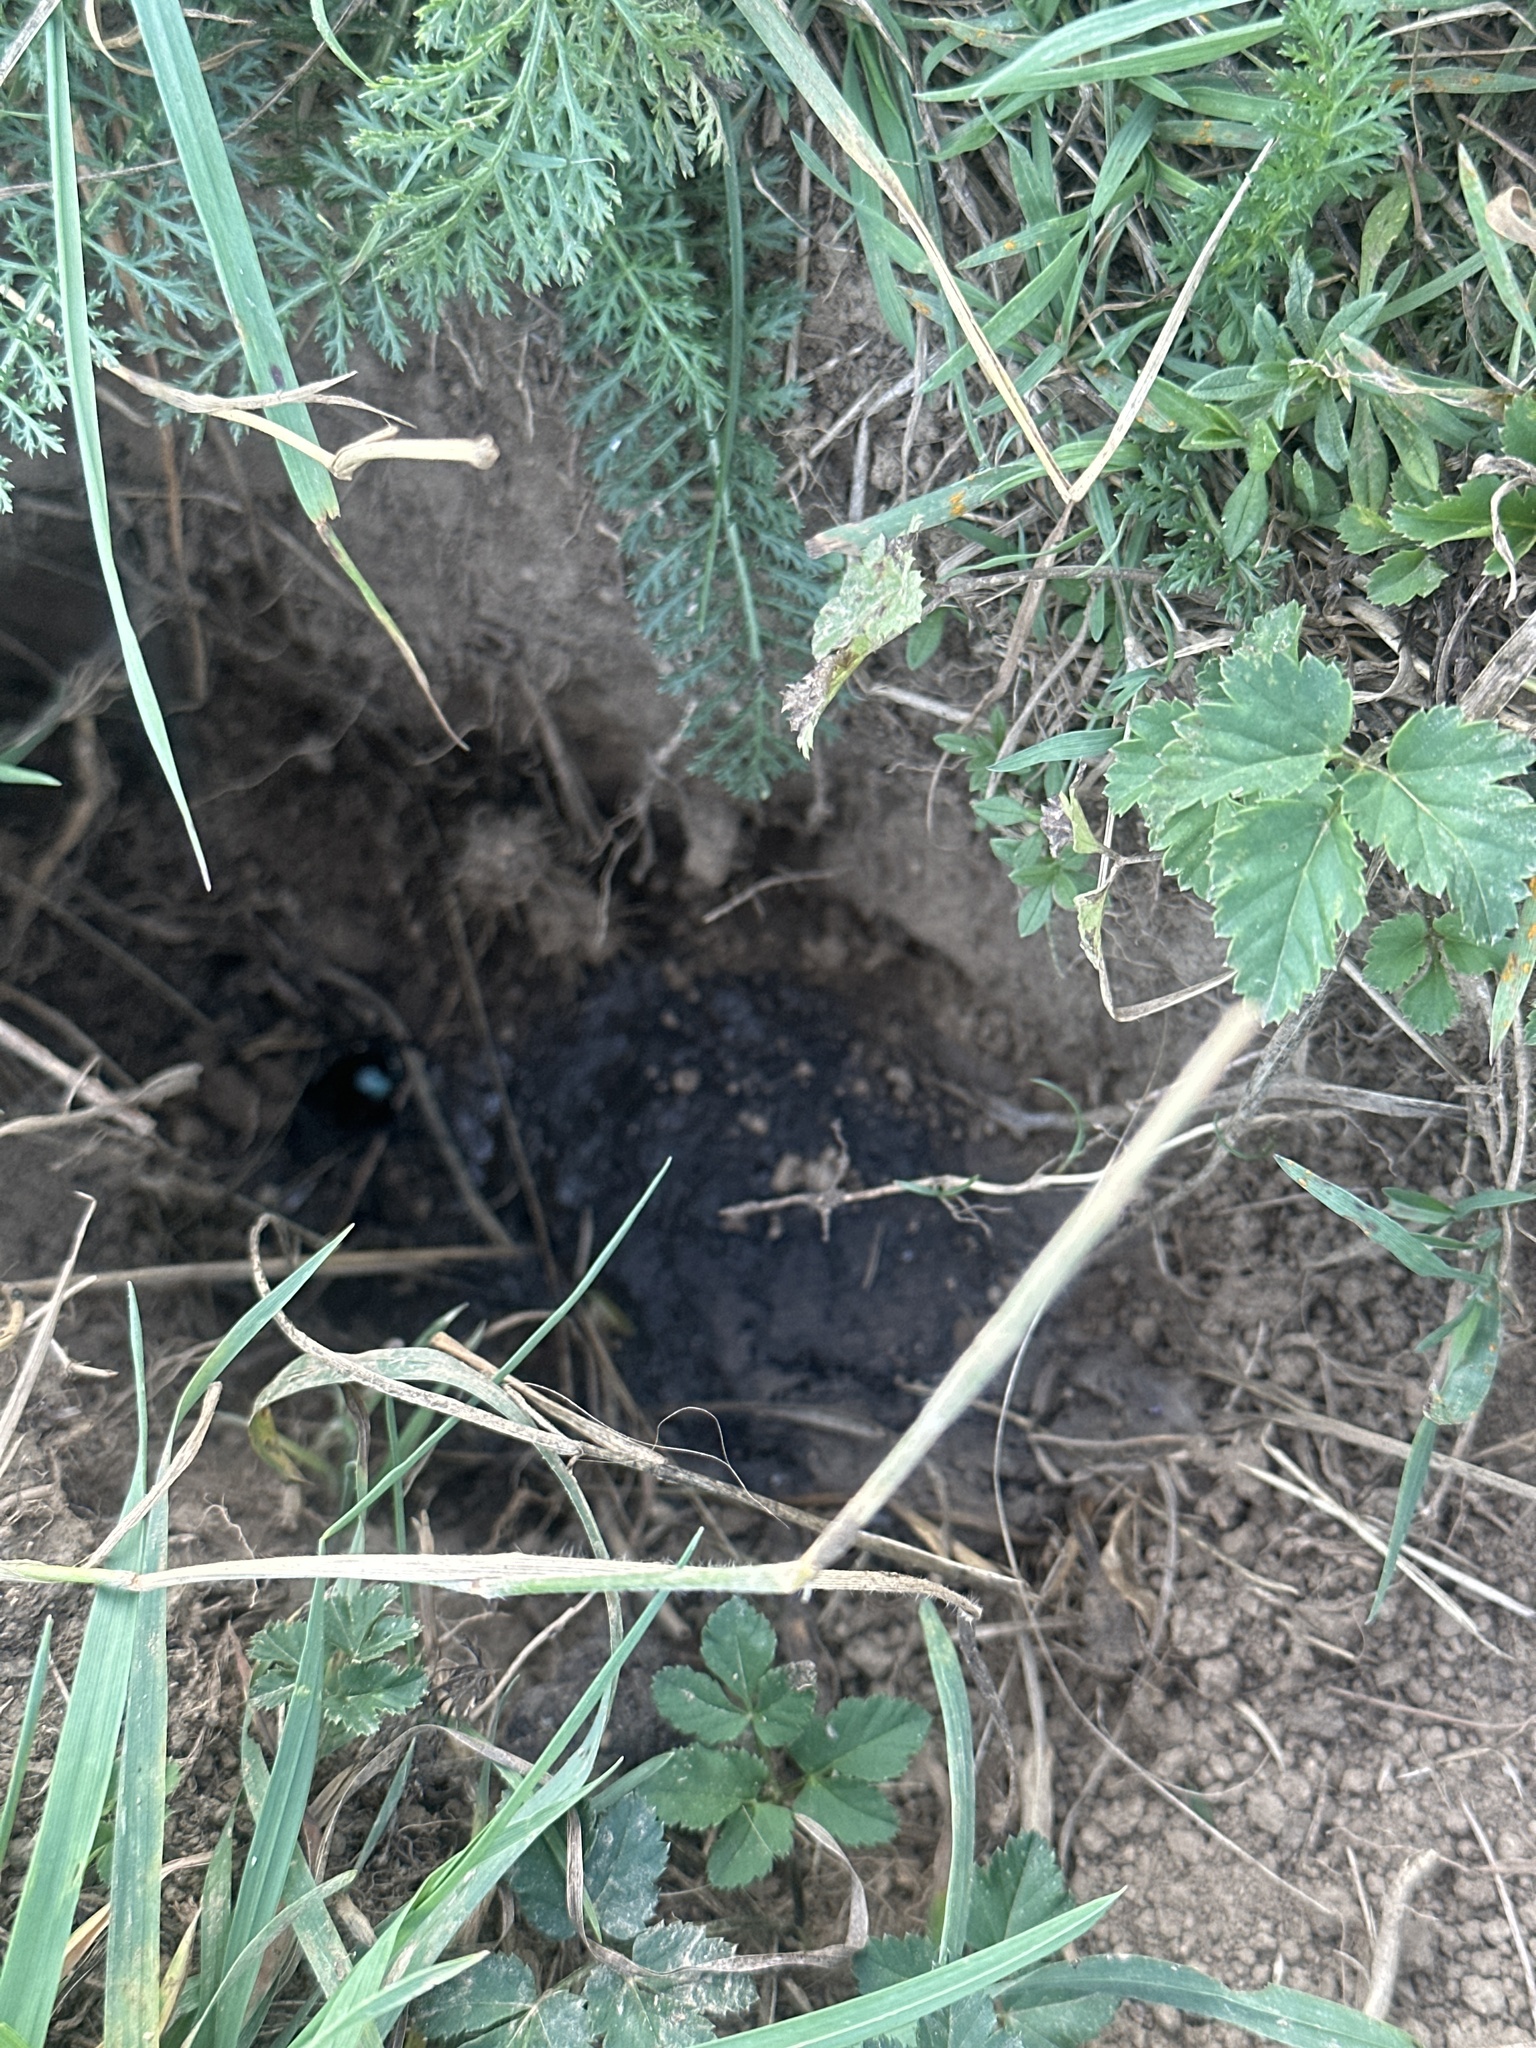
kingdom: Animalia
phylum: Chordata
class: Mammalia
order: Carnivora
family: Mustelidae
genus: Meles
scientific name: Meles meles
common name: Eurasian badger
